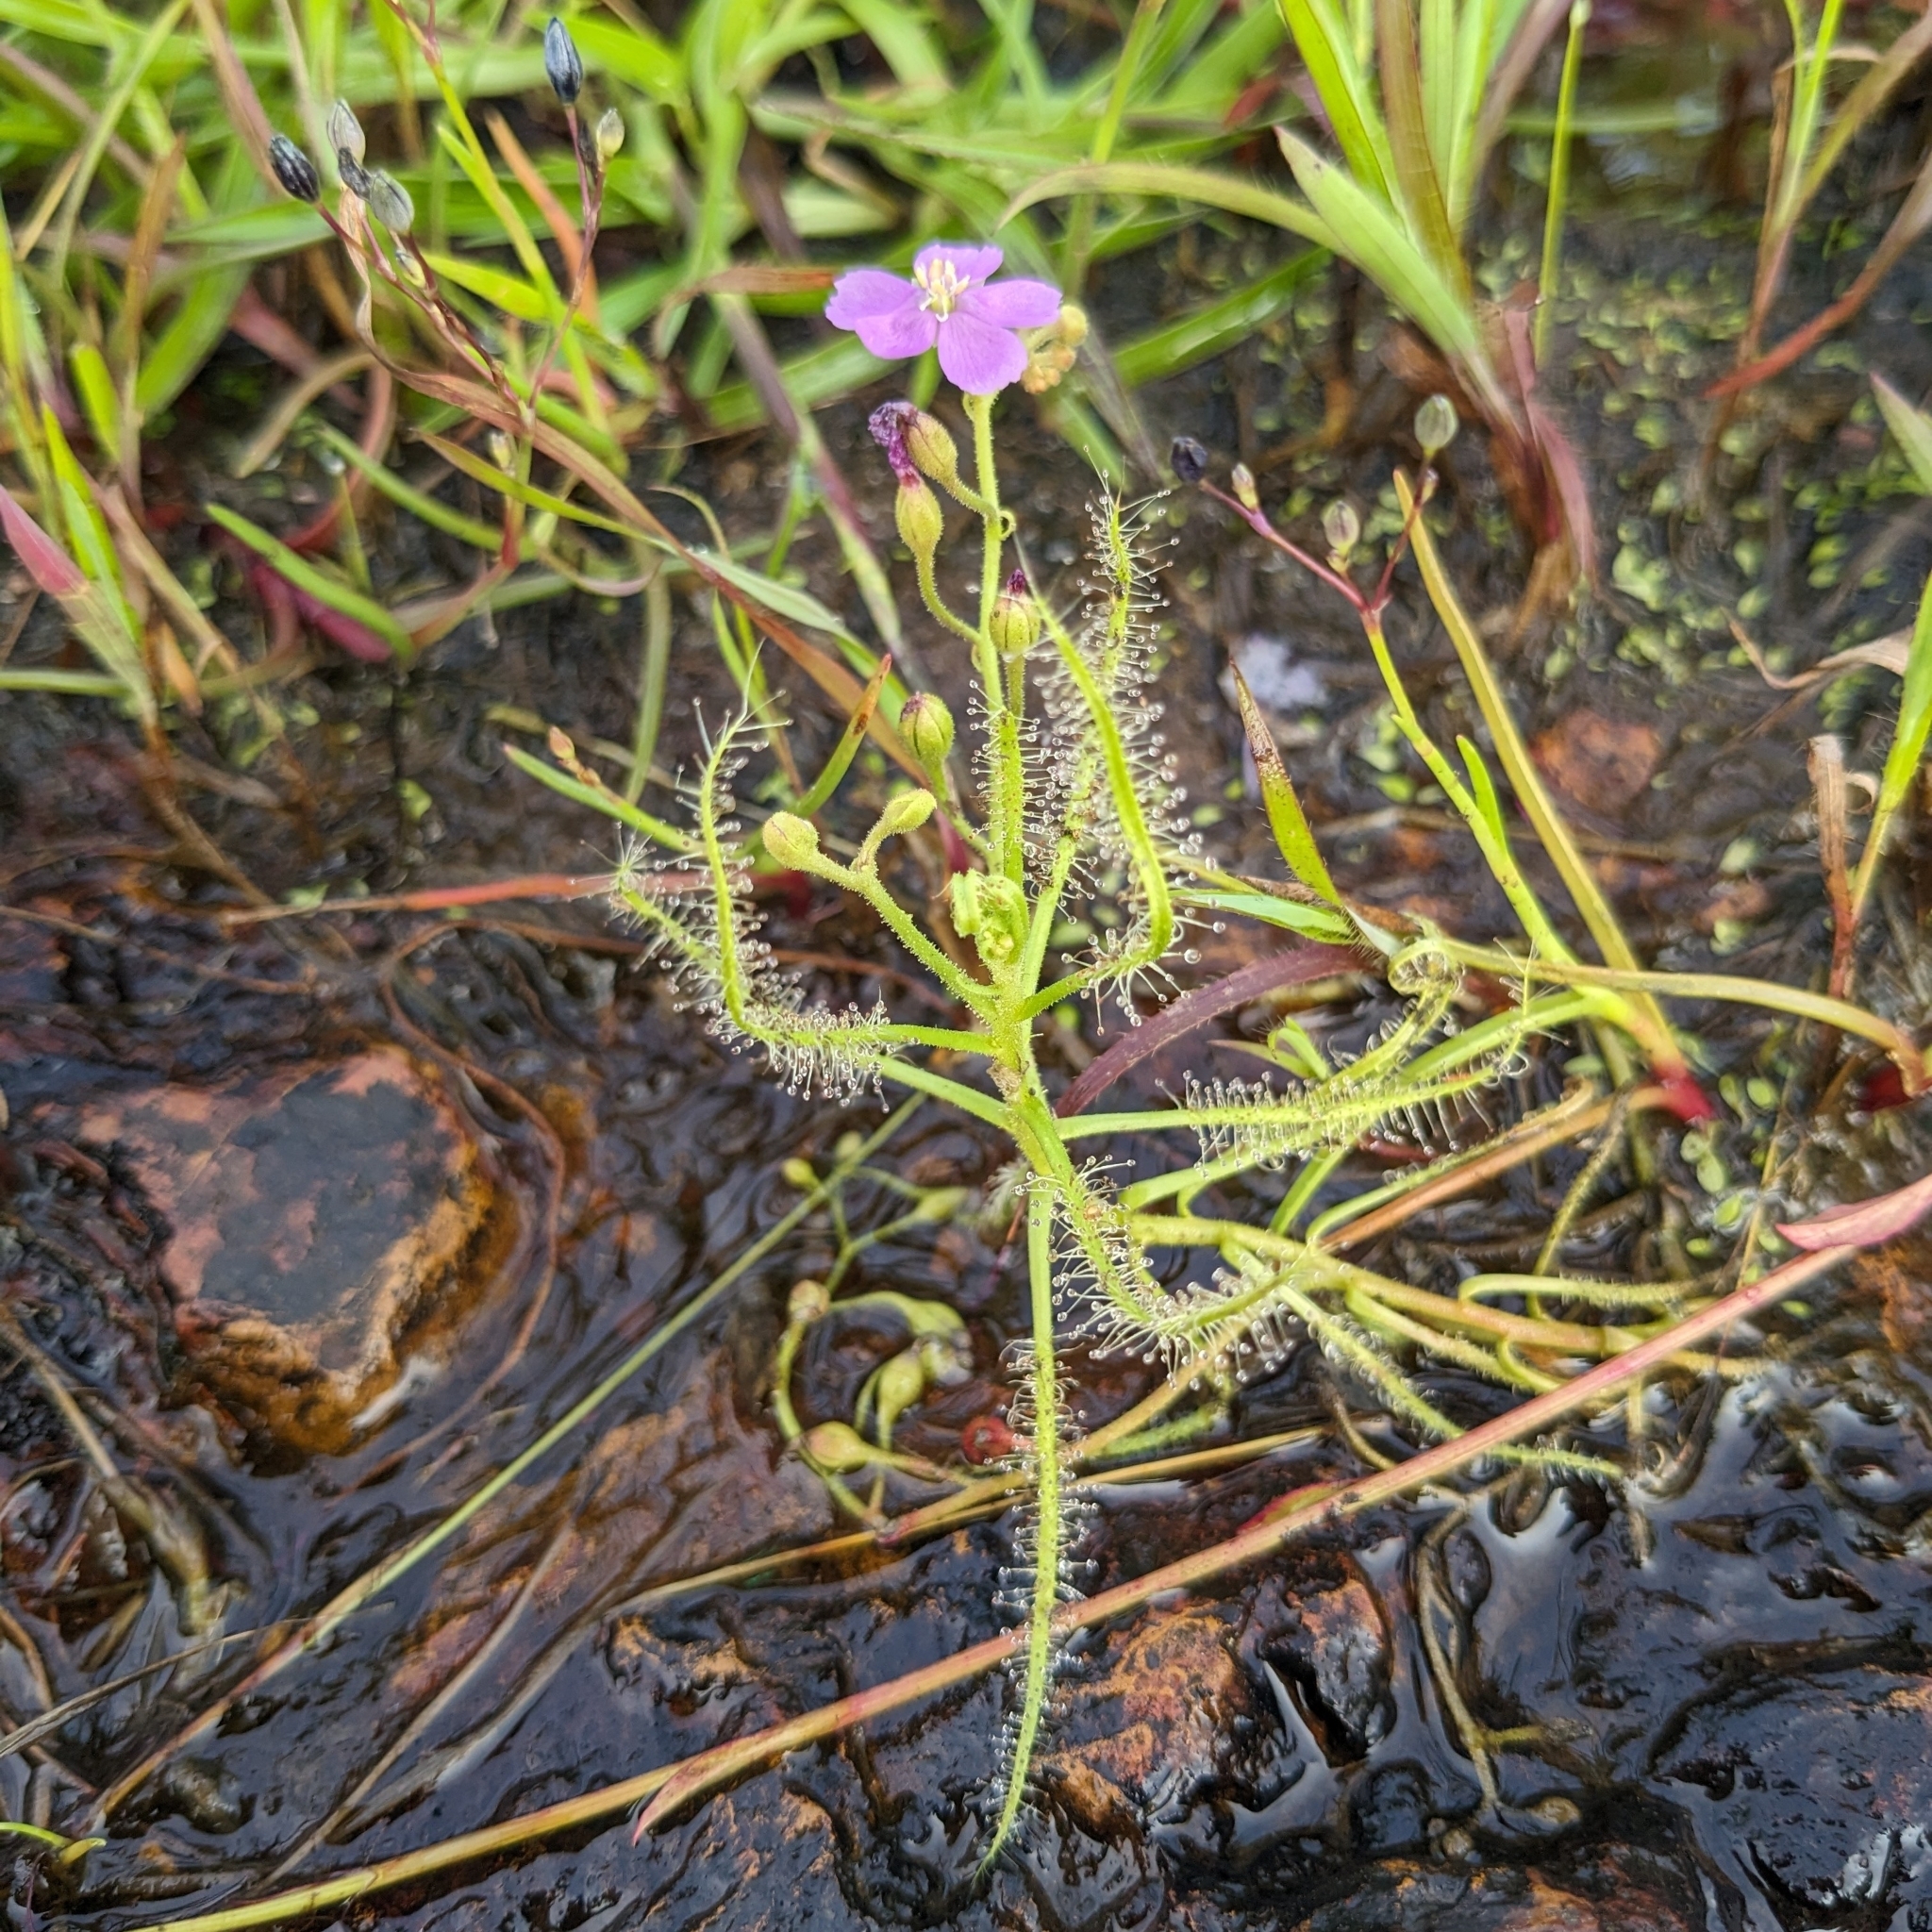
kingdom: Plantae
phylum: Tracheophyta
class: Magnoliopsida
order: Caryophyllales
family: Droseraceae
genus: Drosera
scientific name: Drosera indica
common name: Indian sundew
